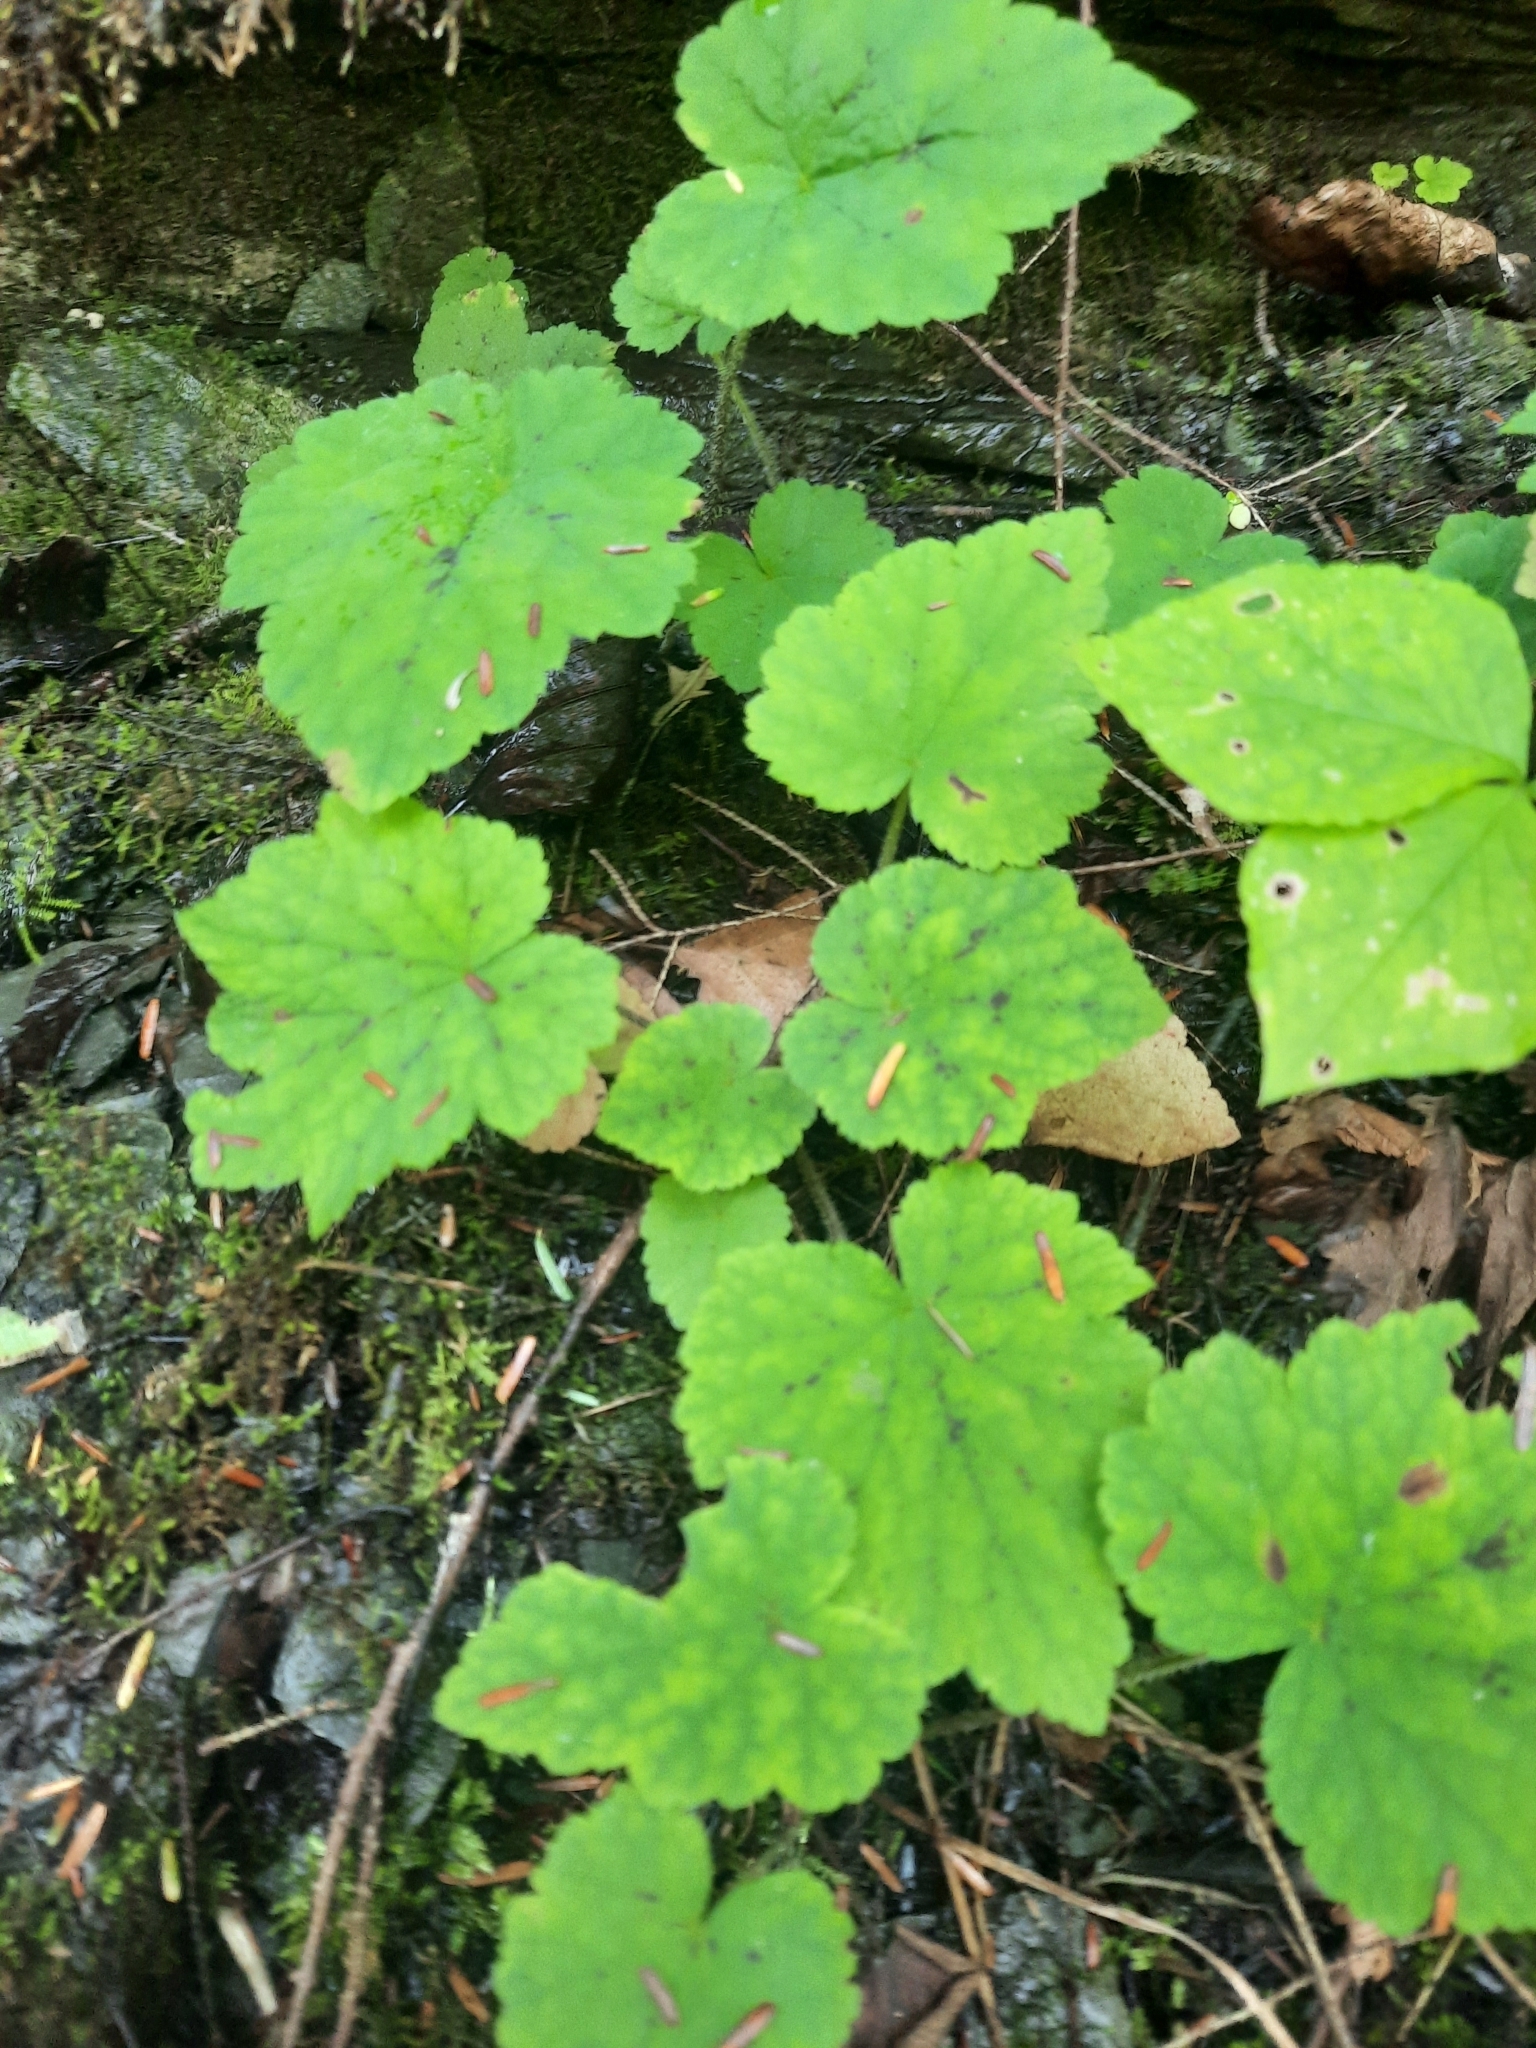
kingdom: Plantae
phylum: Tracheophyta
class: Magnoliopsida
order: Saxifragales
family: Saxifragaceae
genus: Tiarella
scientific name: Tiarella stolonifera
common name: Stoloniferous foamflower
